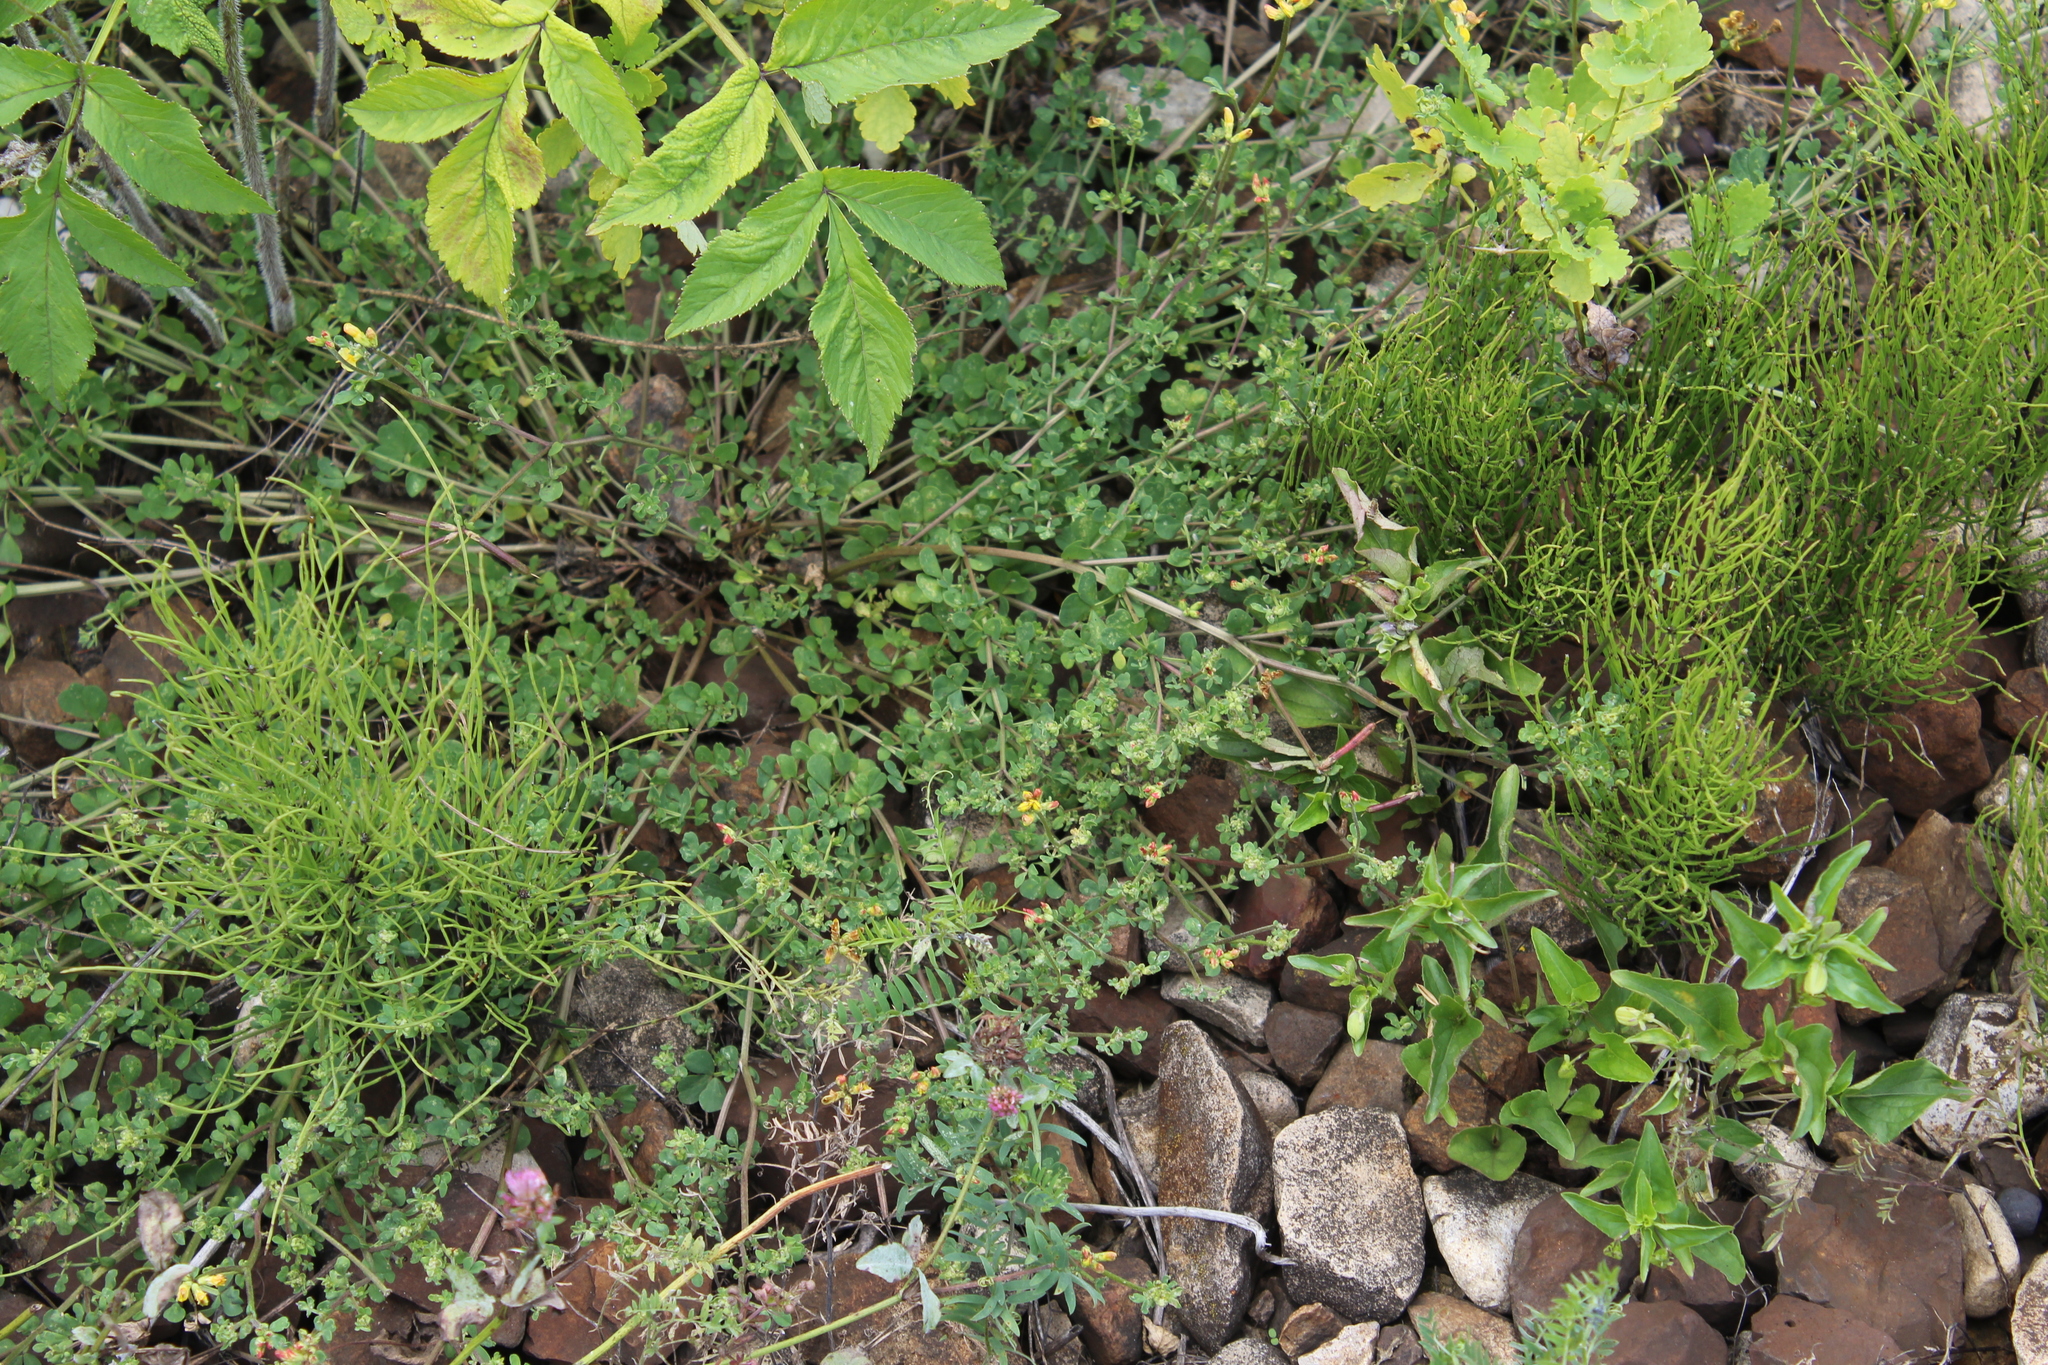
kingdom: Plantae
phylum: Tracheophyta
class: Magnoliopsida
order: Fabales
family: Fabaceae
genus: Lotus
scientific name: Lotus corniculatus
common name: Common bird's-foot-trefoil
